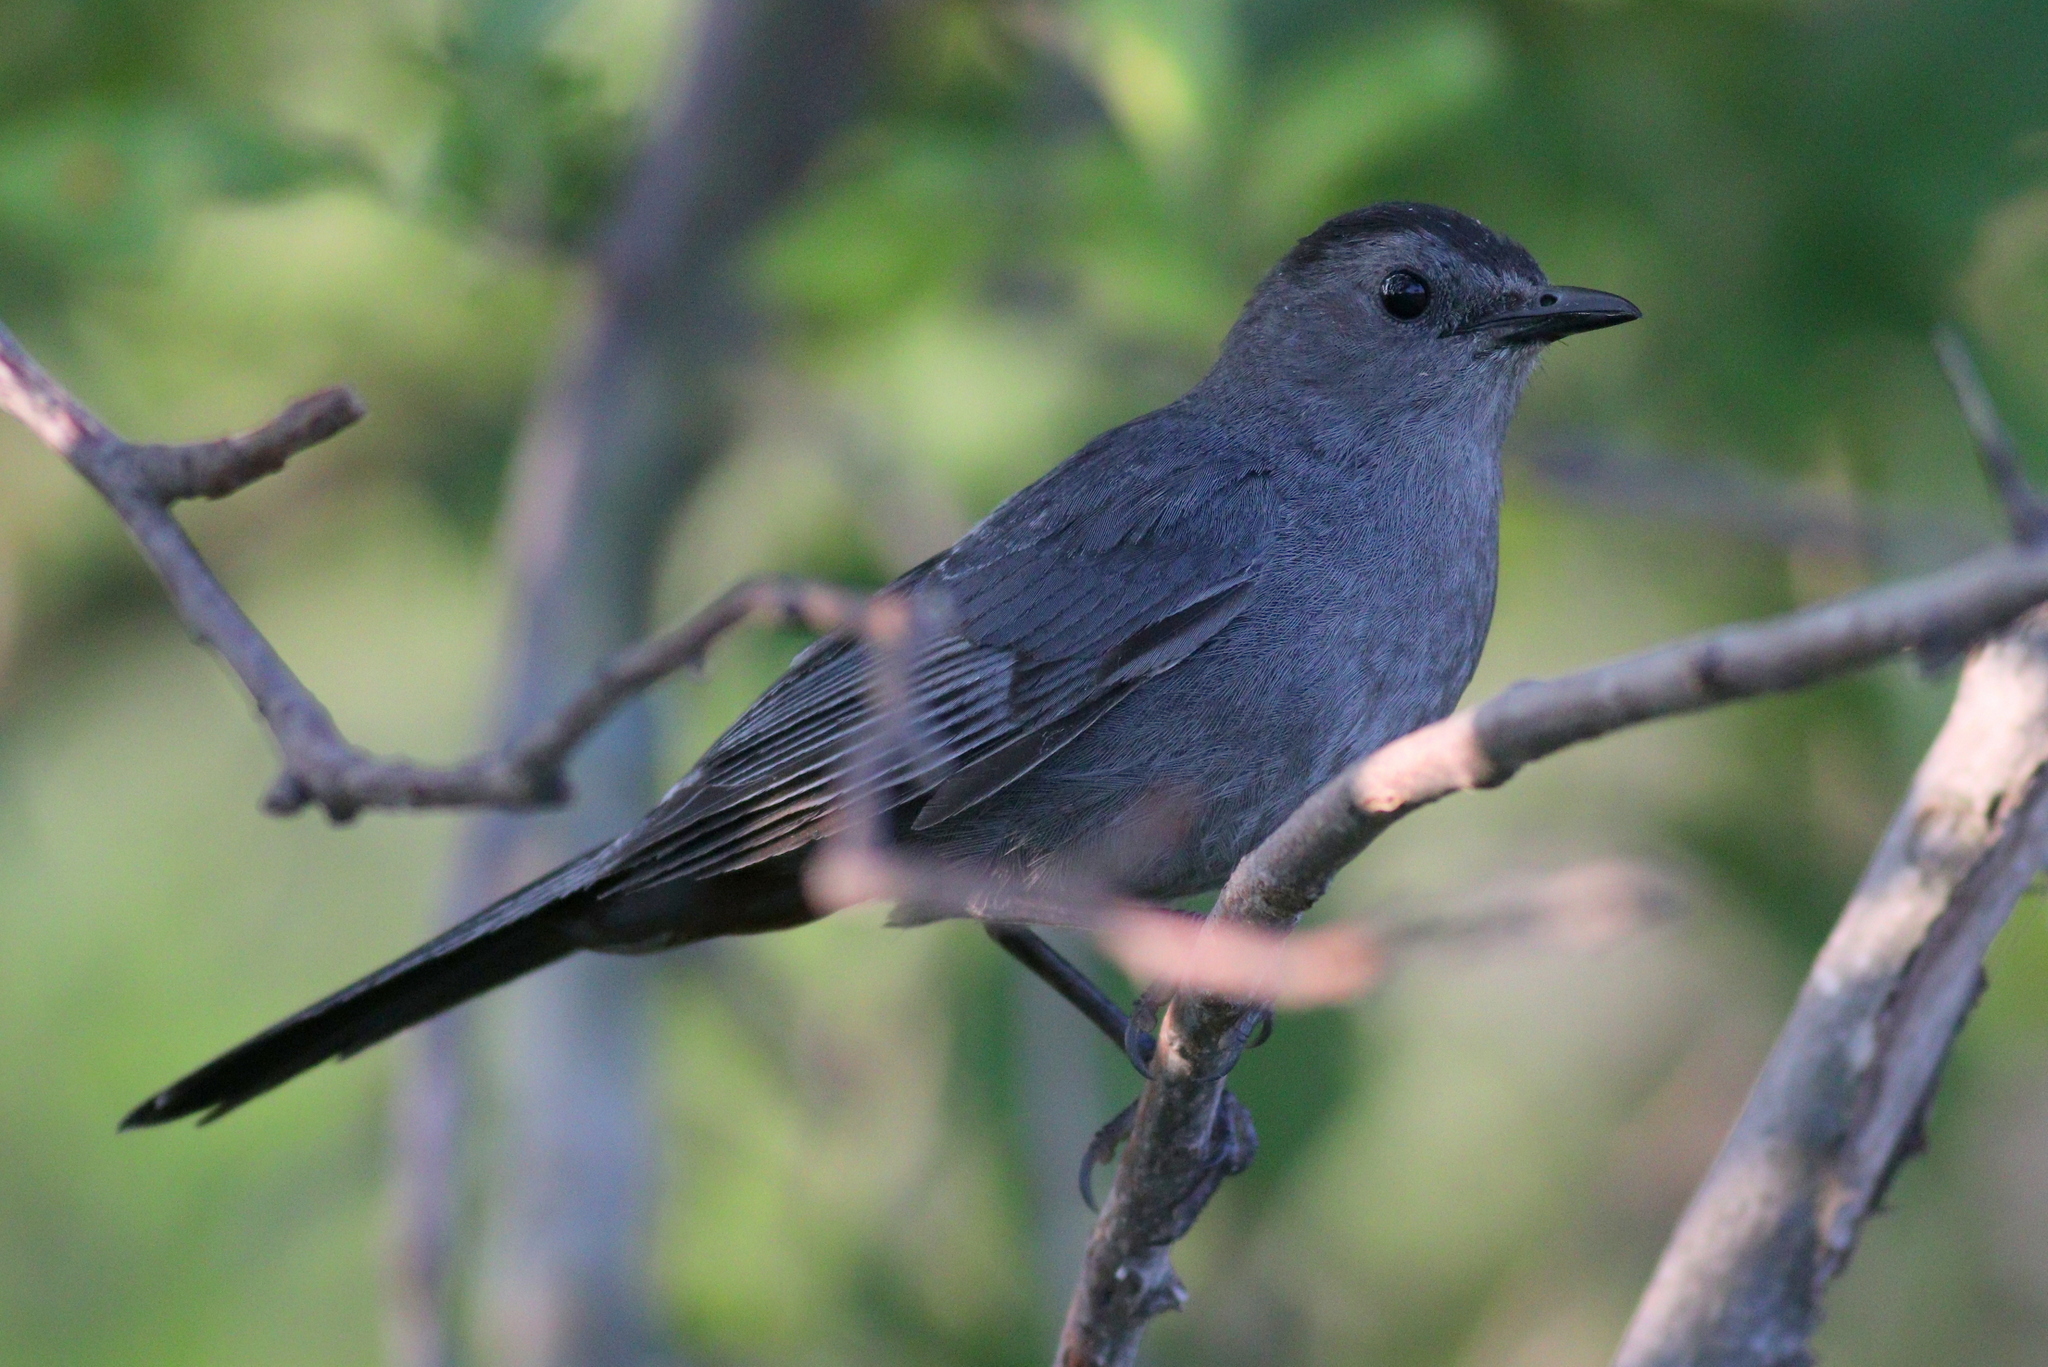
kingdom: Animalia
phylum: Chordata
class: Aves
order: Passeriformes
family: Mimidae
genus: Dumetella
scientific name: Dumetella carolinensis
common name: Gray catbird
